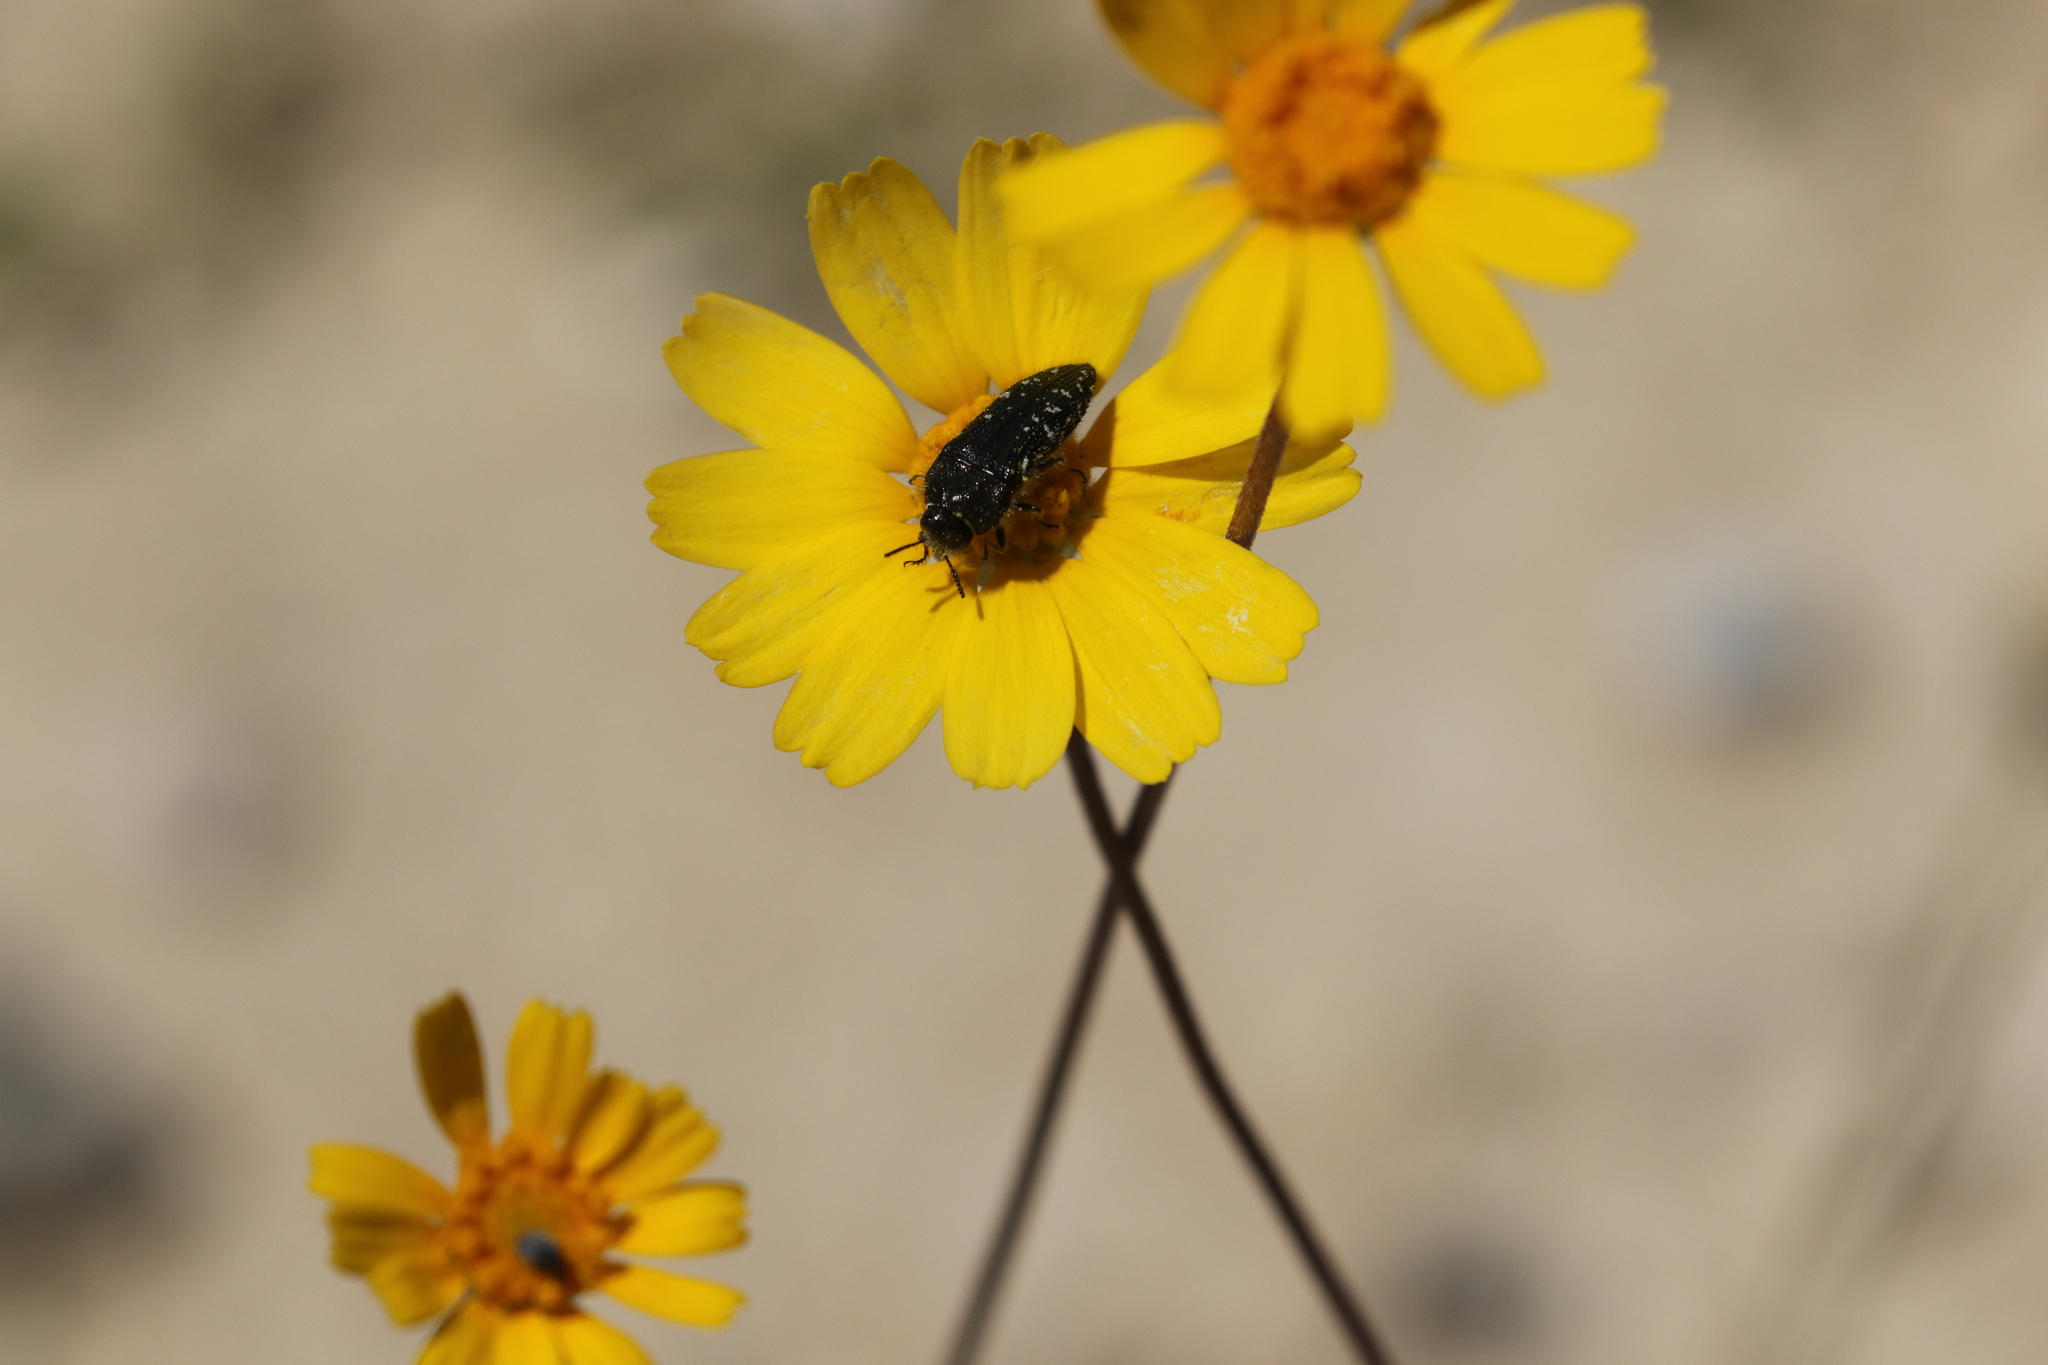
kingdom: Animalia
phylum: Arthropoda
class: Insecta
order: Coleoptera
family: Buprestidae
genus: Acmaeodera
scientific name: Acmaeodera ornatoides
